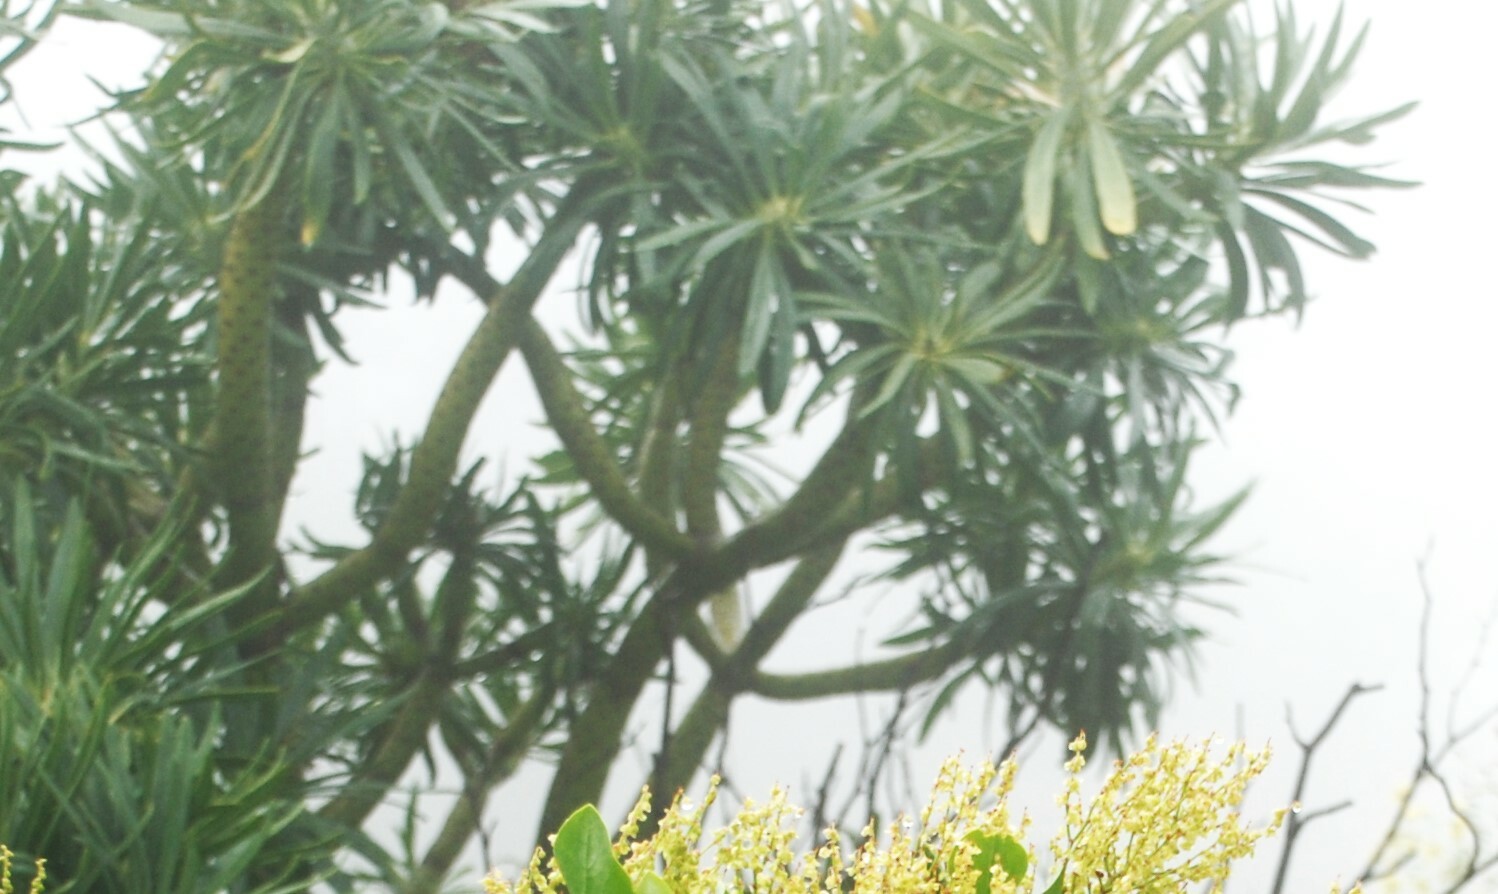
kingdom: Plantae
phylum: Tracheophyta
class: Magnoliopsida
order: Asterales
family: Asteraceae
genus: Kleinia
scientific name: Kleinia neriifolia
